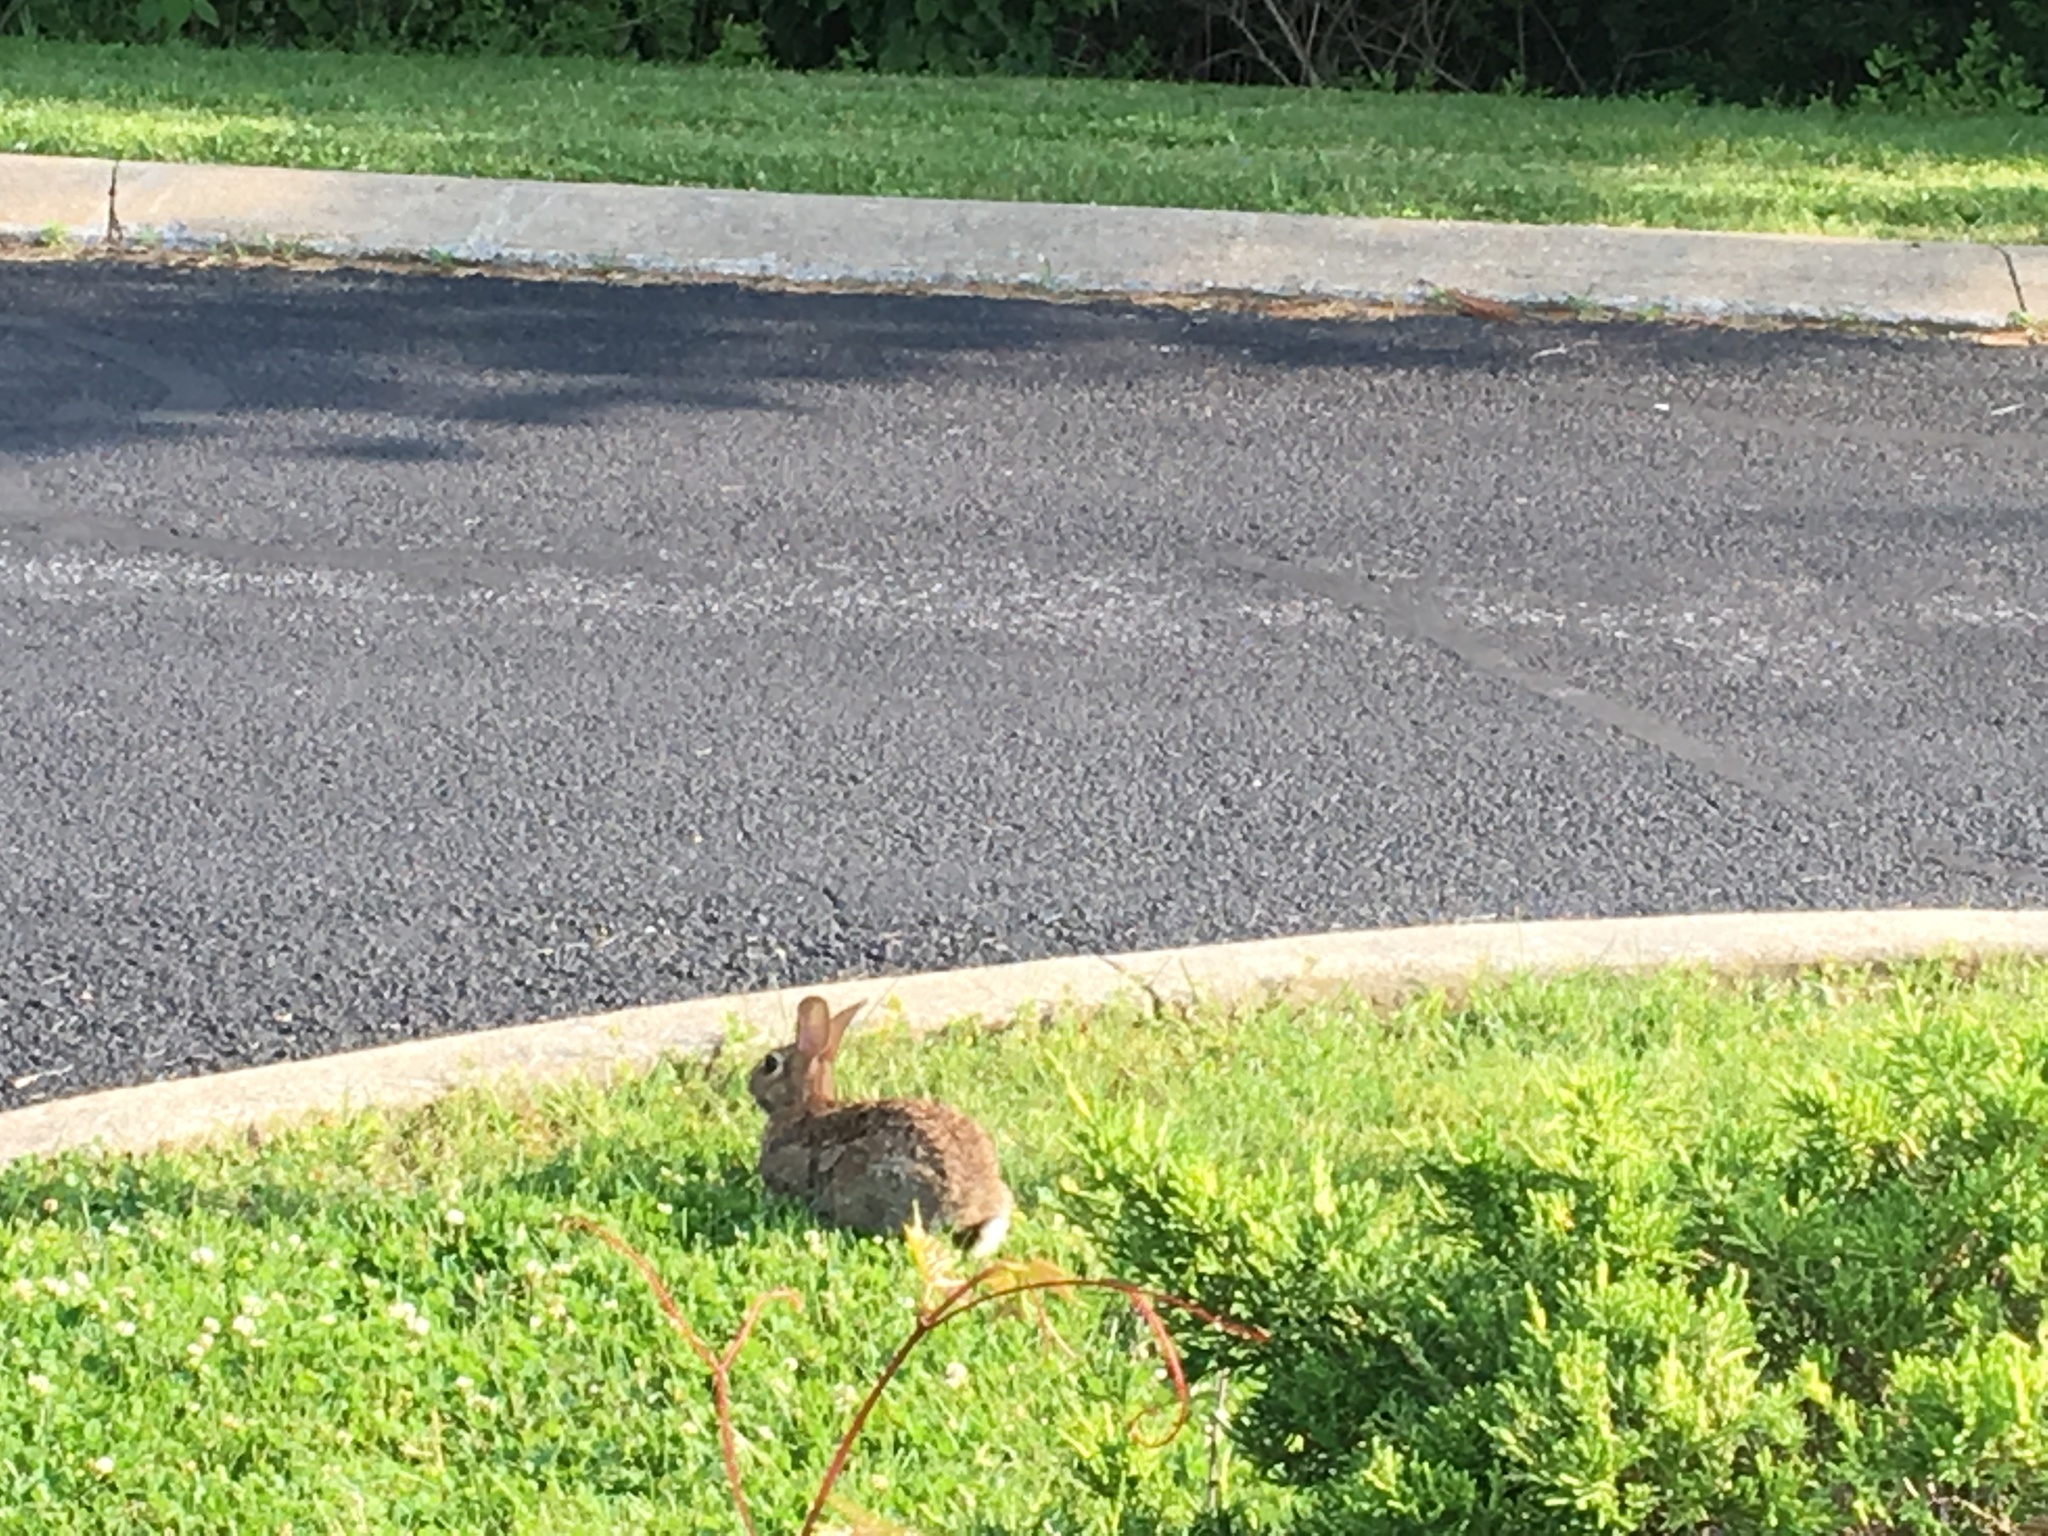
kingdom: Animalia
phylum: Chordata
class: Mammalia
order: Lagomorpha
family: Leporidae
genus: Sylvilagus
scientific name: Sylvilagus floridanus
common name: Eastern cottontail
